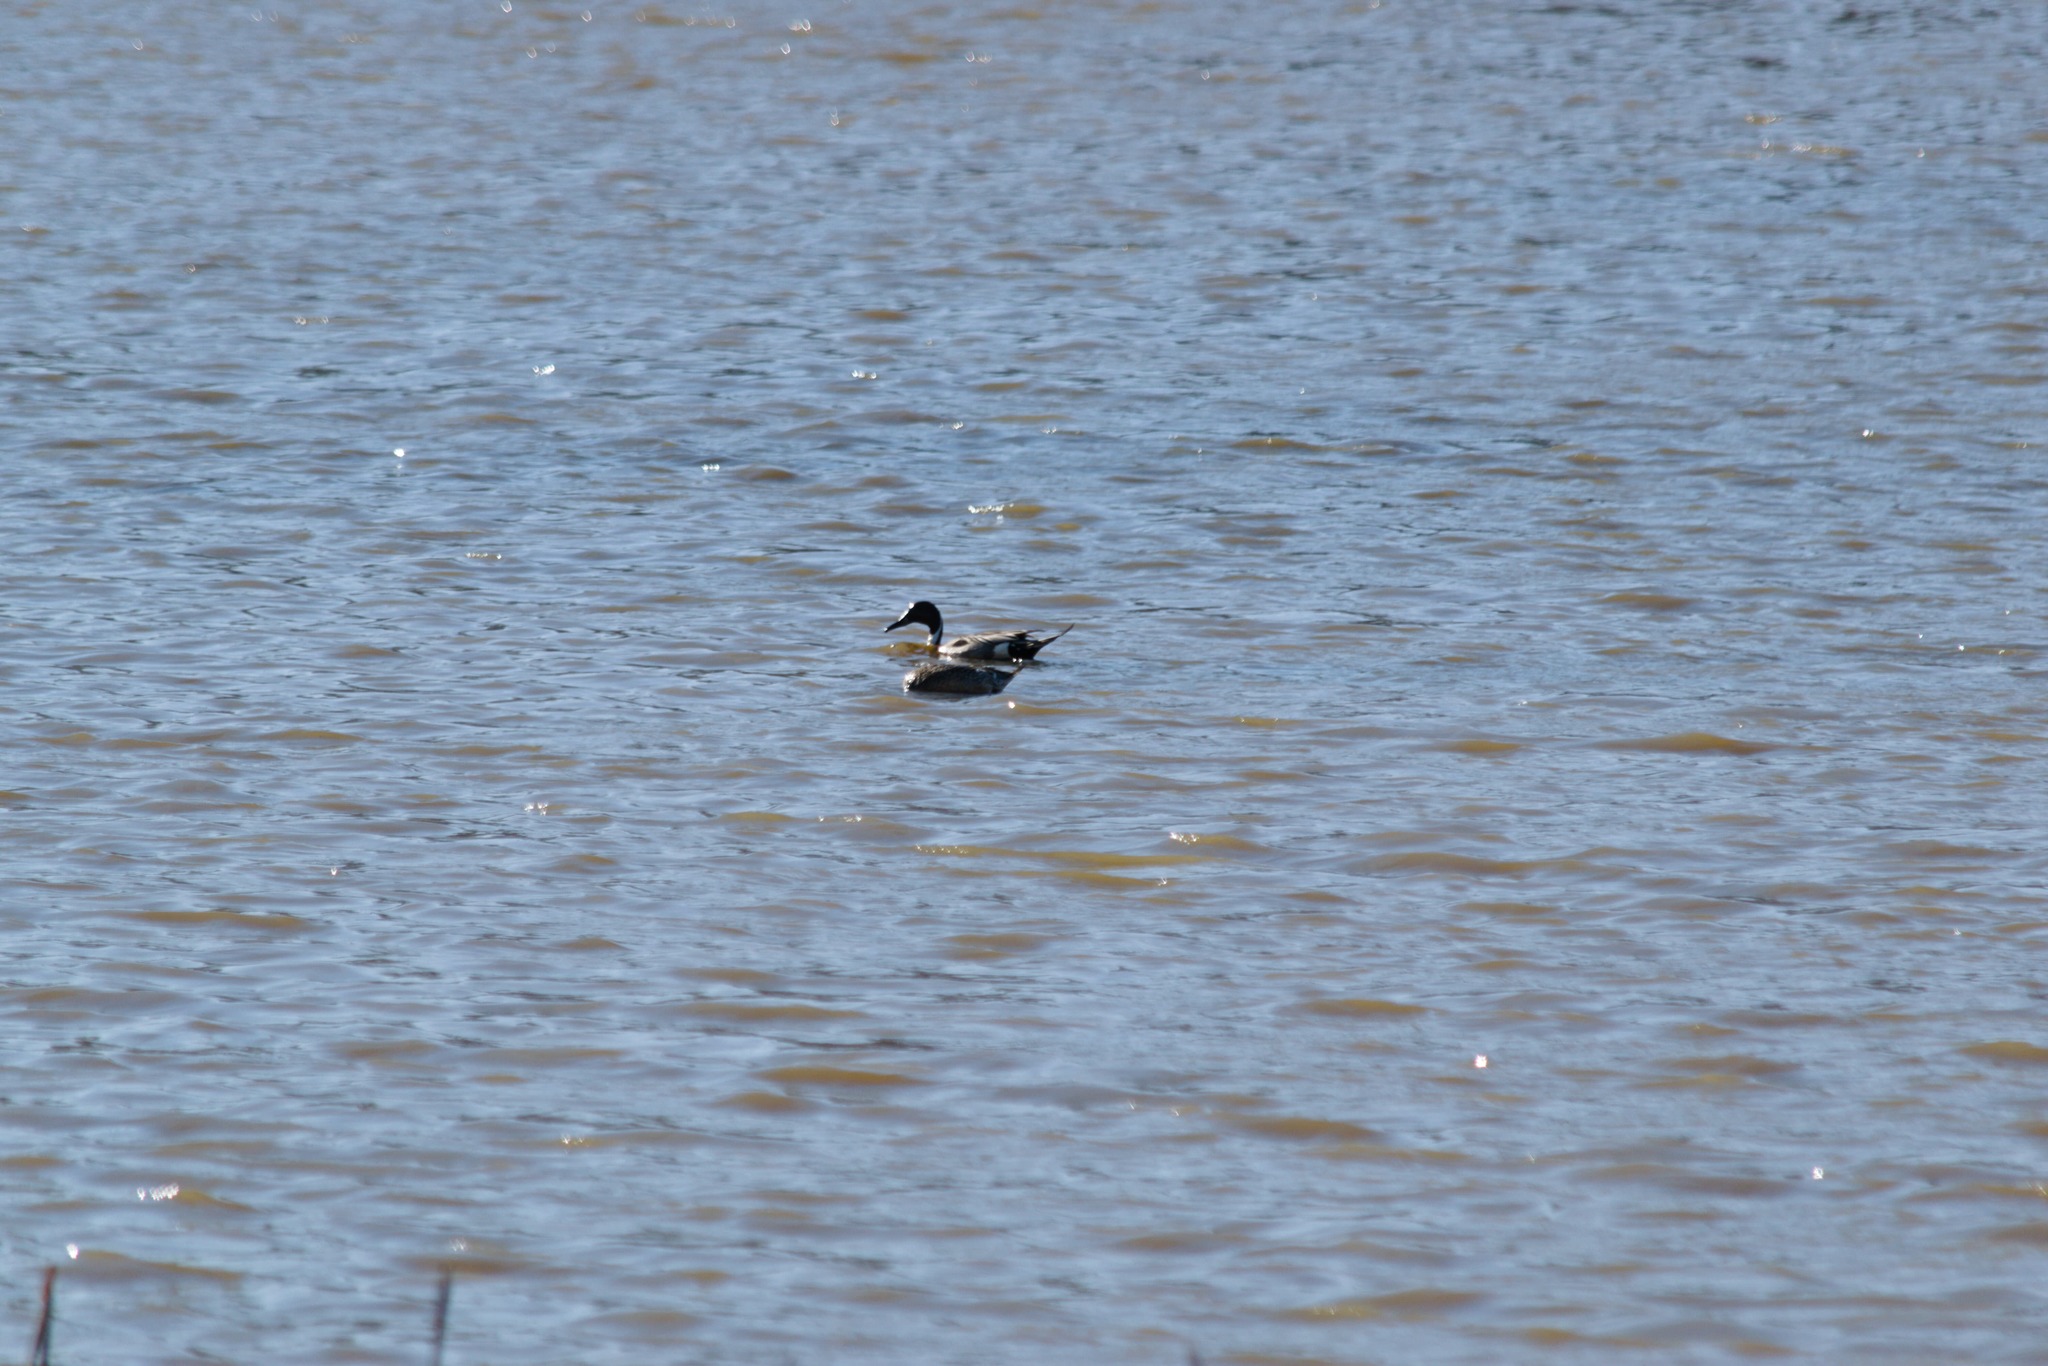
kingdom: Animalia
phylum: Chordata
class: Aves
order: Anseriformes
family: Anatidae
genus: Anas
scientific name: Anas acuta
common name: Northern pintail
